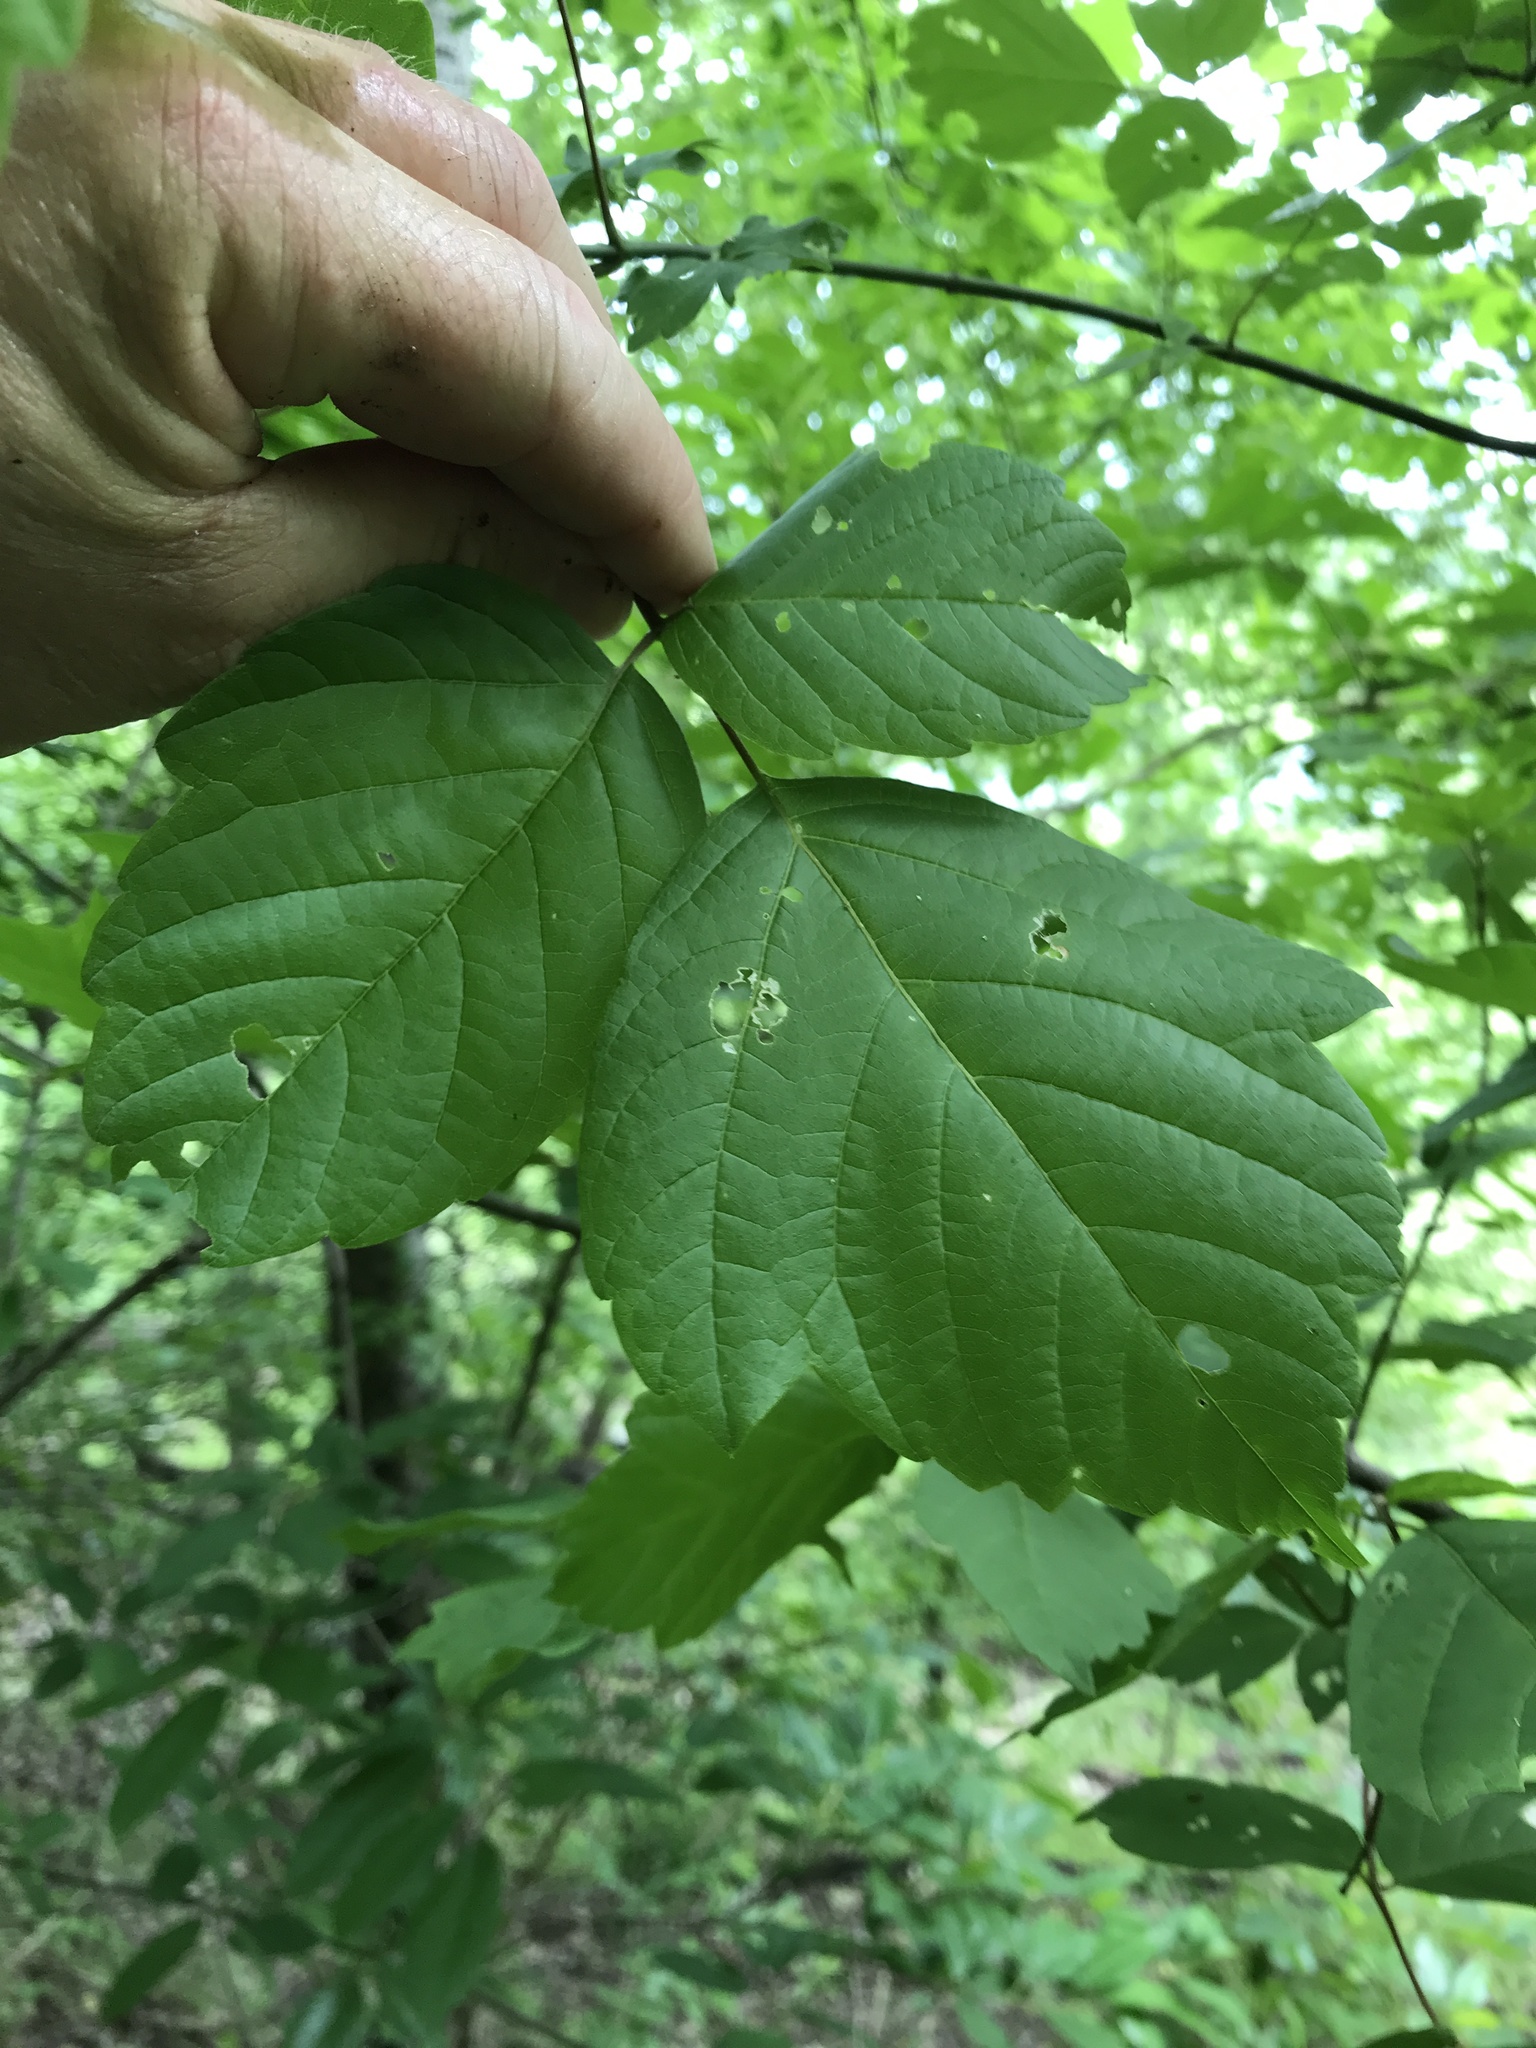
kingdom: Plantae
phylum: Tracheophyta
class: Magnoliopsida
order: Sapindales
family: Sapindaceae
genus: Acer
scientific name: Acer negundo
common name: Ashleaf maple
